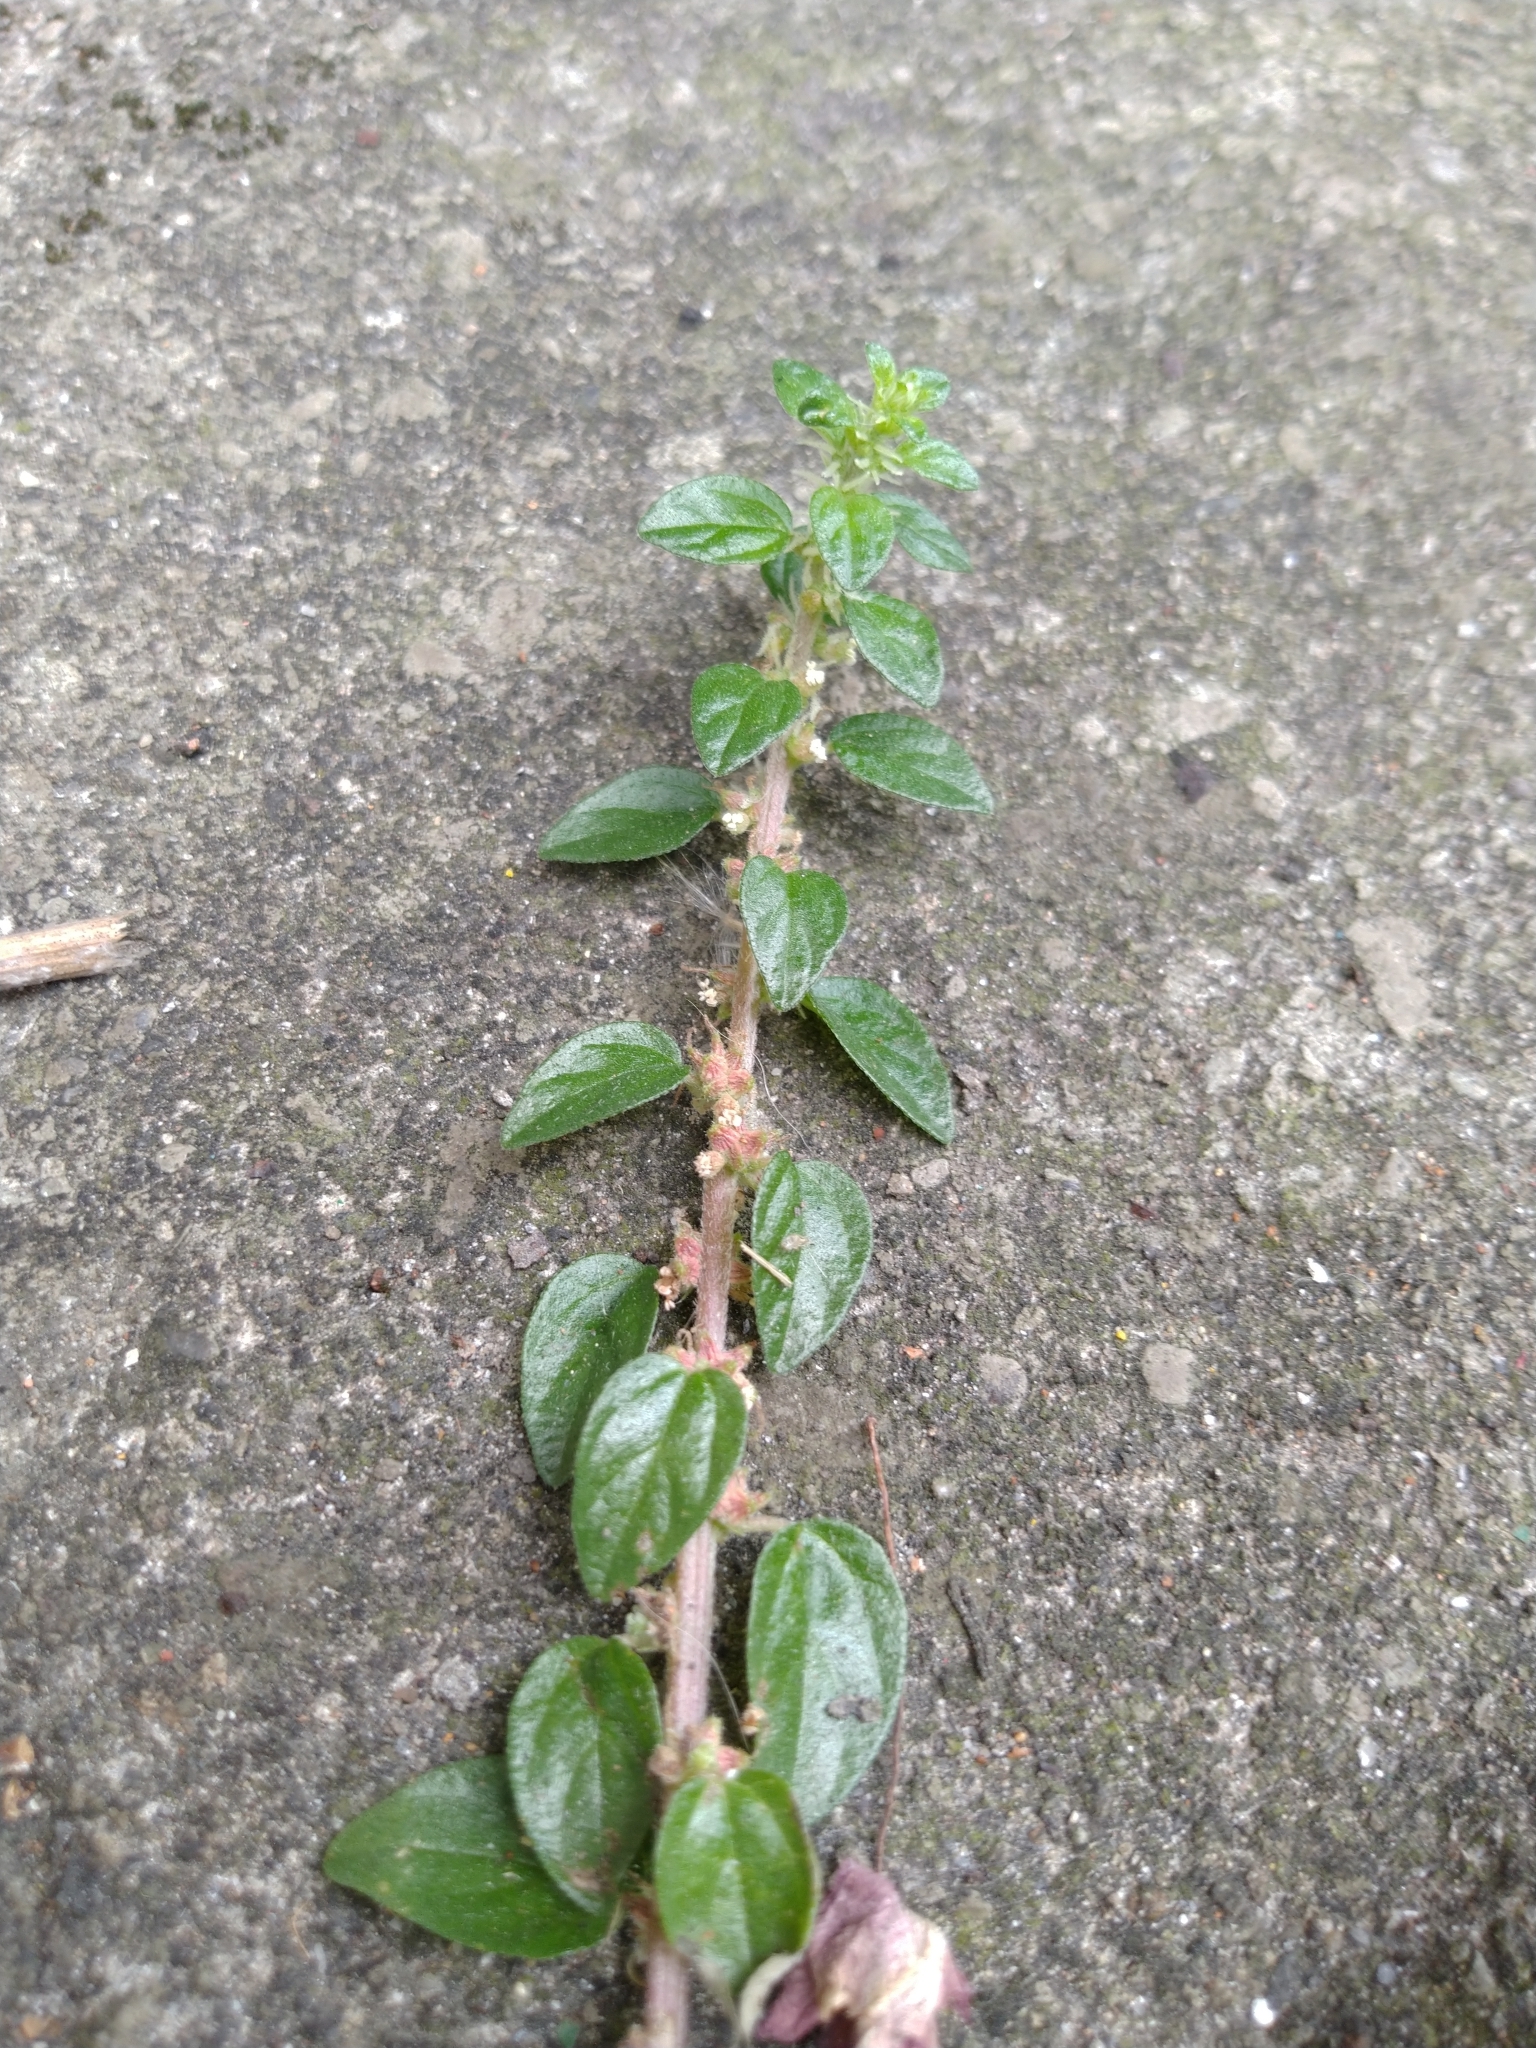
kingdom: Plantae
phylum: Tracheophyta
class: Magnoliopsida
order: Rosales
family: Urticaceae
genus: Pouzolzia
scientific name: Pouzolzia zeylanica
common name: Graceful pouzolzsbush
